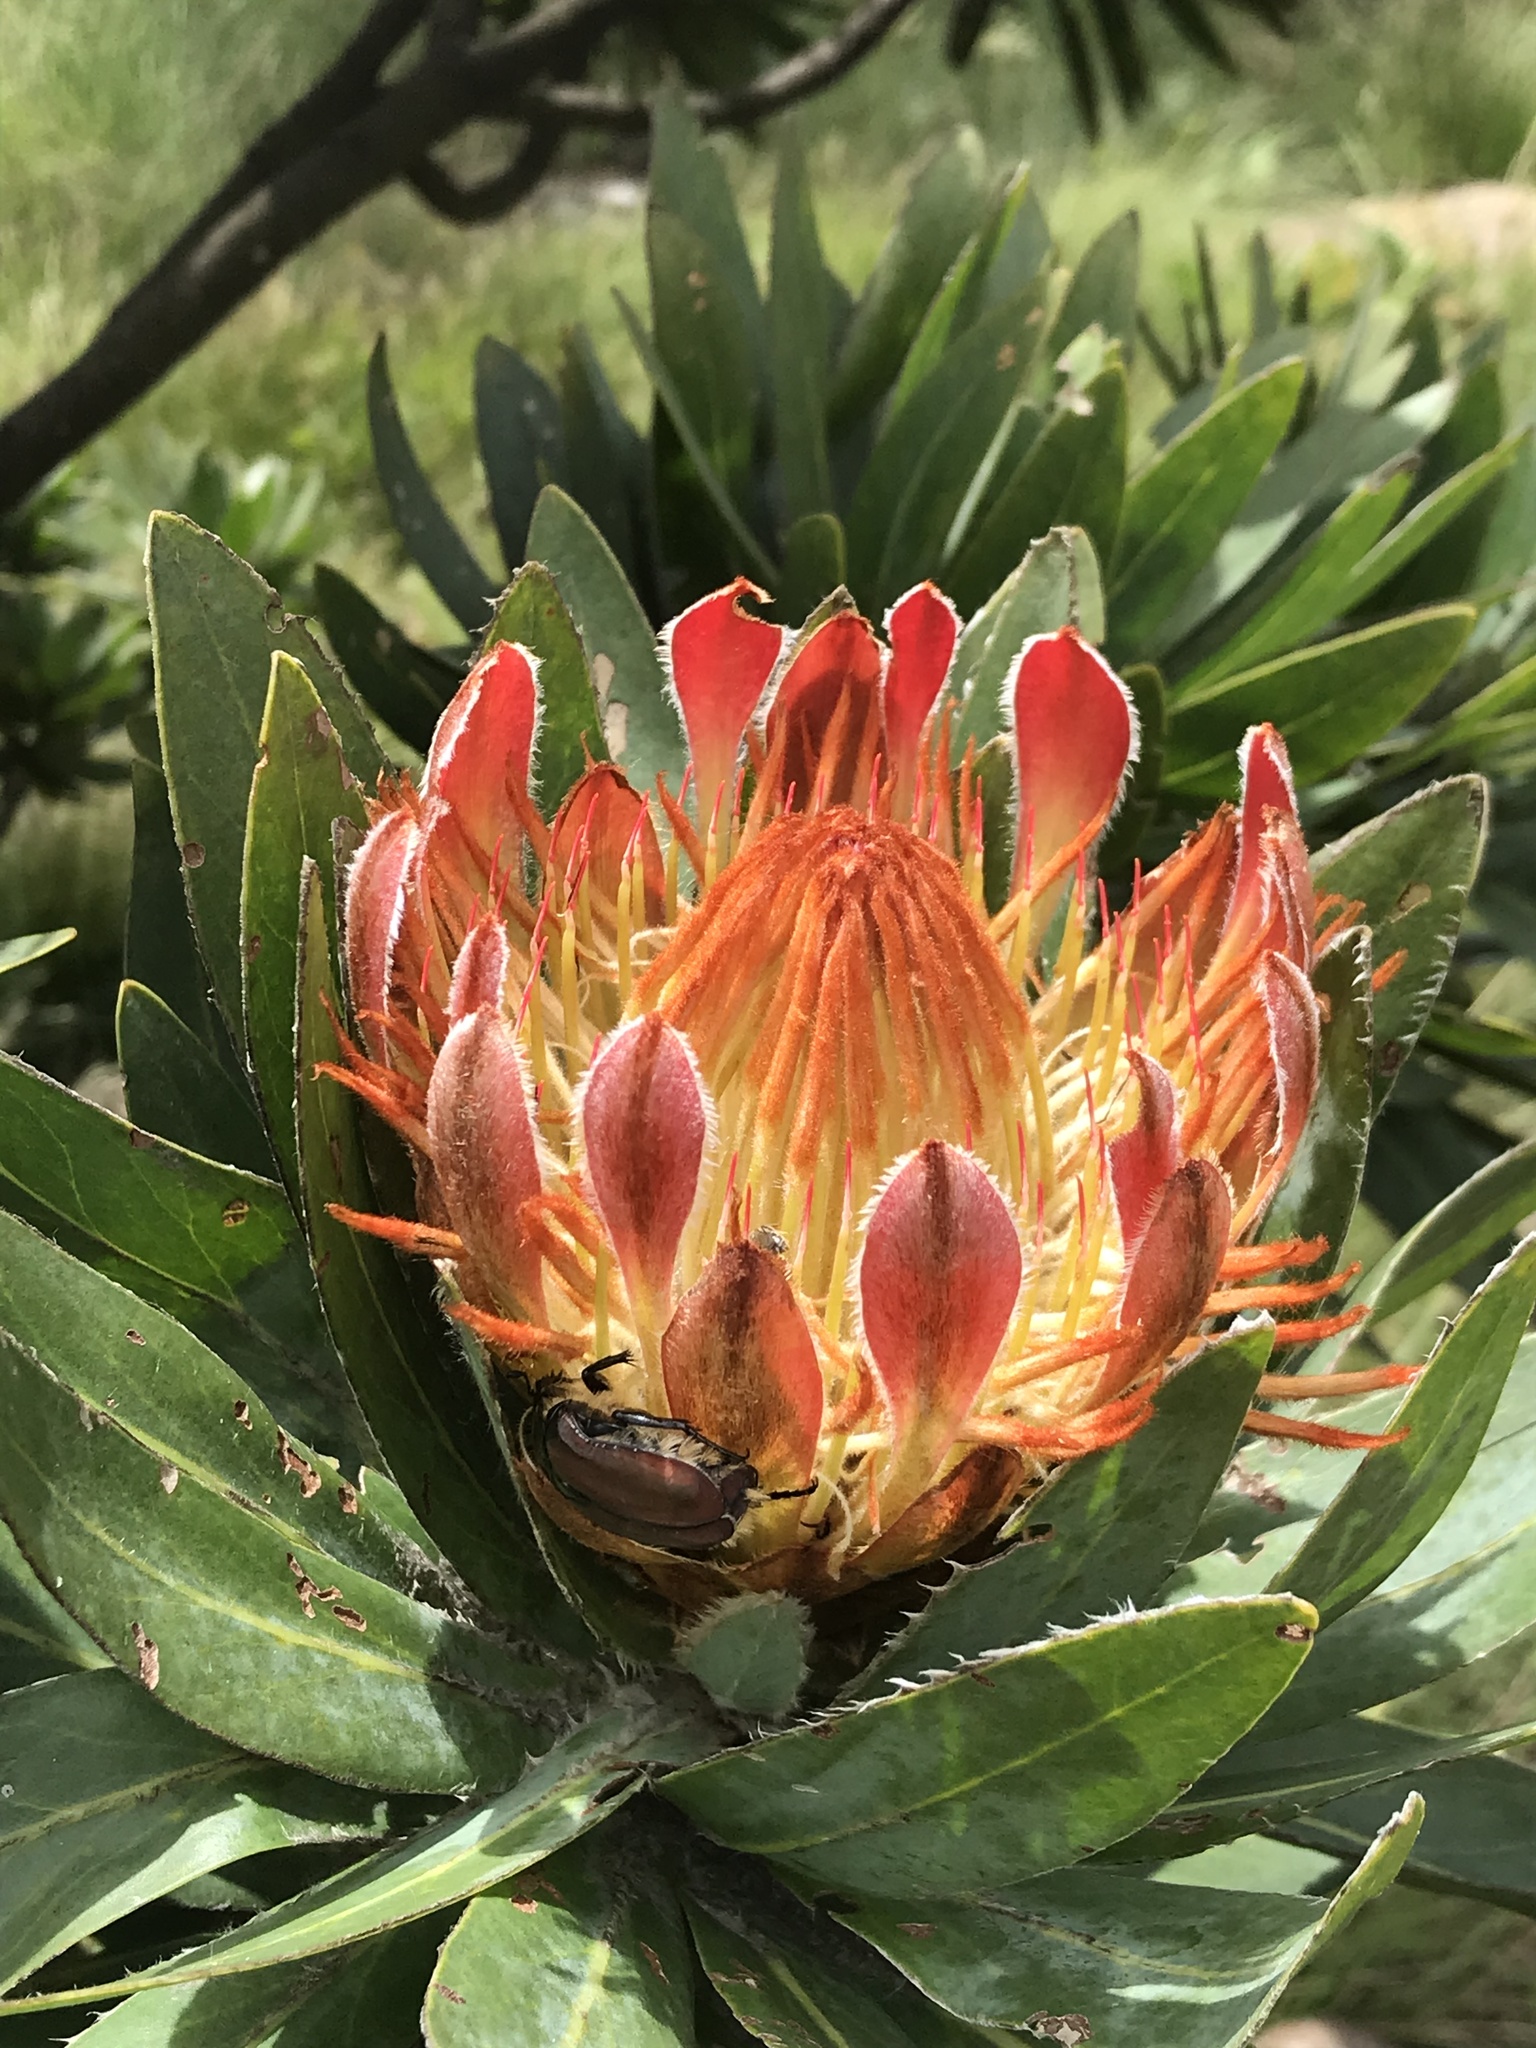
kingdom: Plantae
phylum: Tracheophyta
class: Magnoliopsida
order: Proteales
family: Proteaceae
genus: Protea
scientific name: Protea roupelliae
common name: Silver sugarbush
